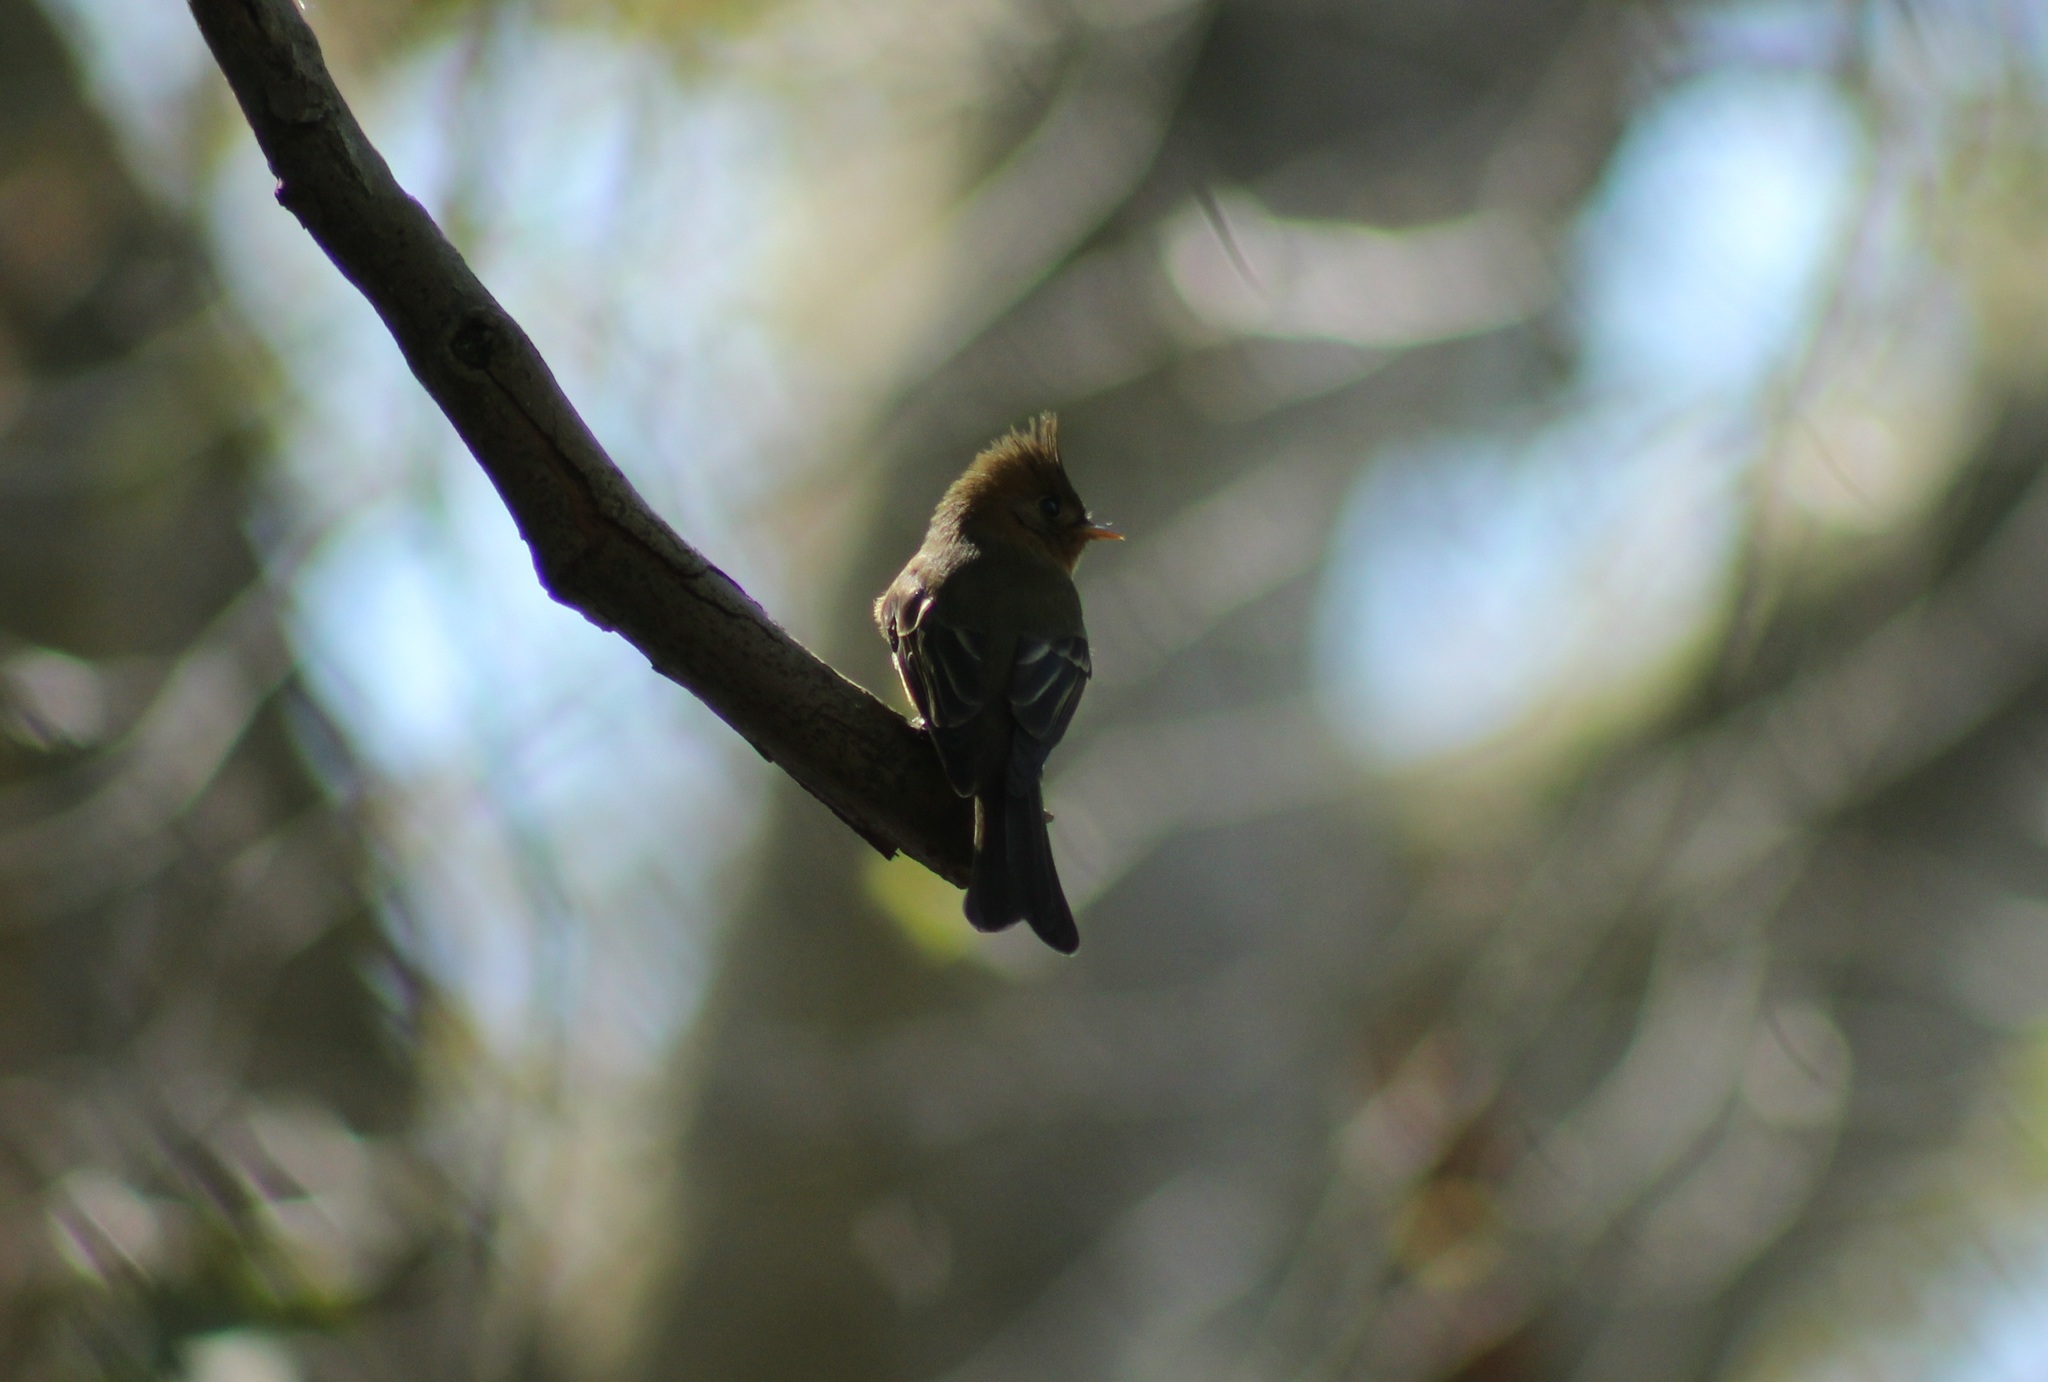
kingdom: Animalia
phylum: Chordata
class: Aves
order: Passeriformes
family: Tyrannidae
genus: Mitrephanes
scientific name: Mitrephanes phaeocercus
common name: Northern tufted flycatcher
